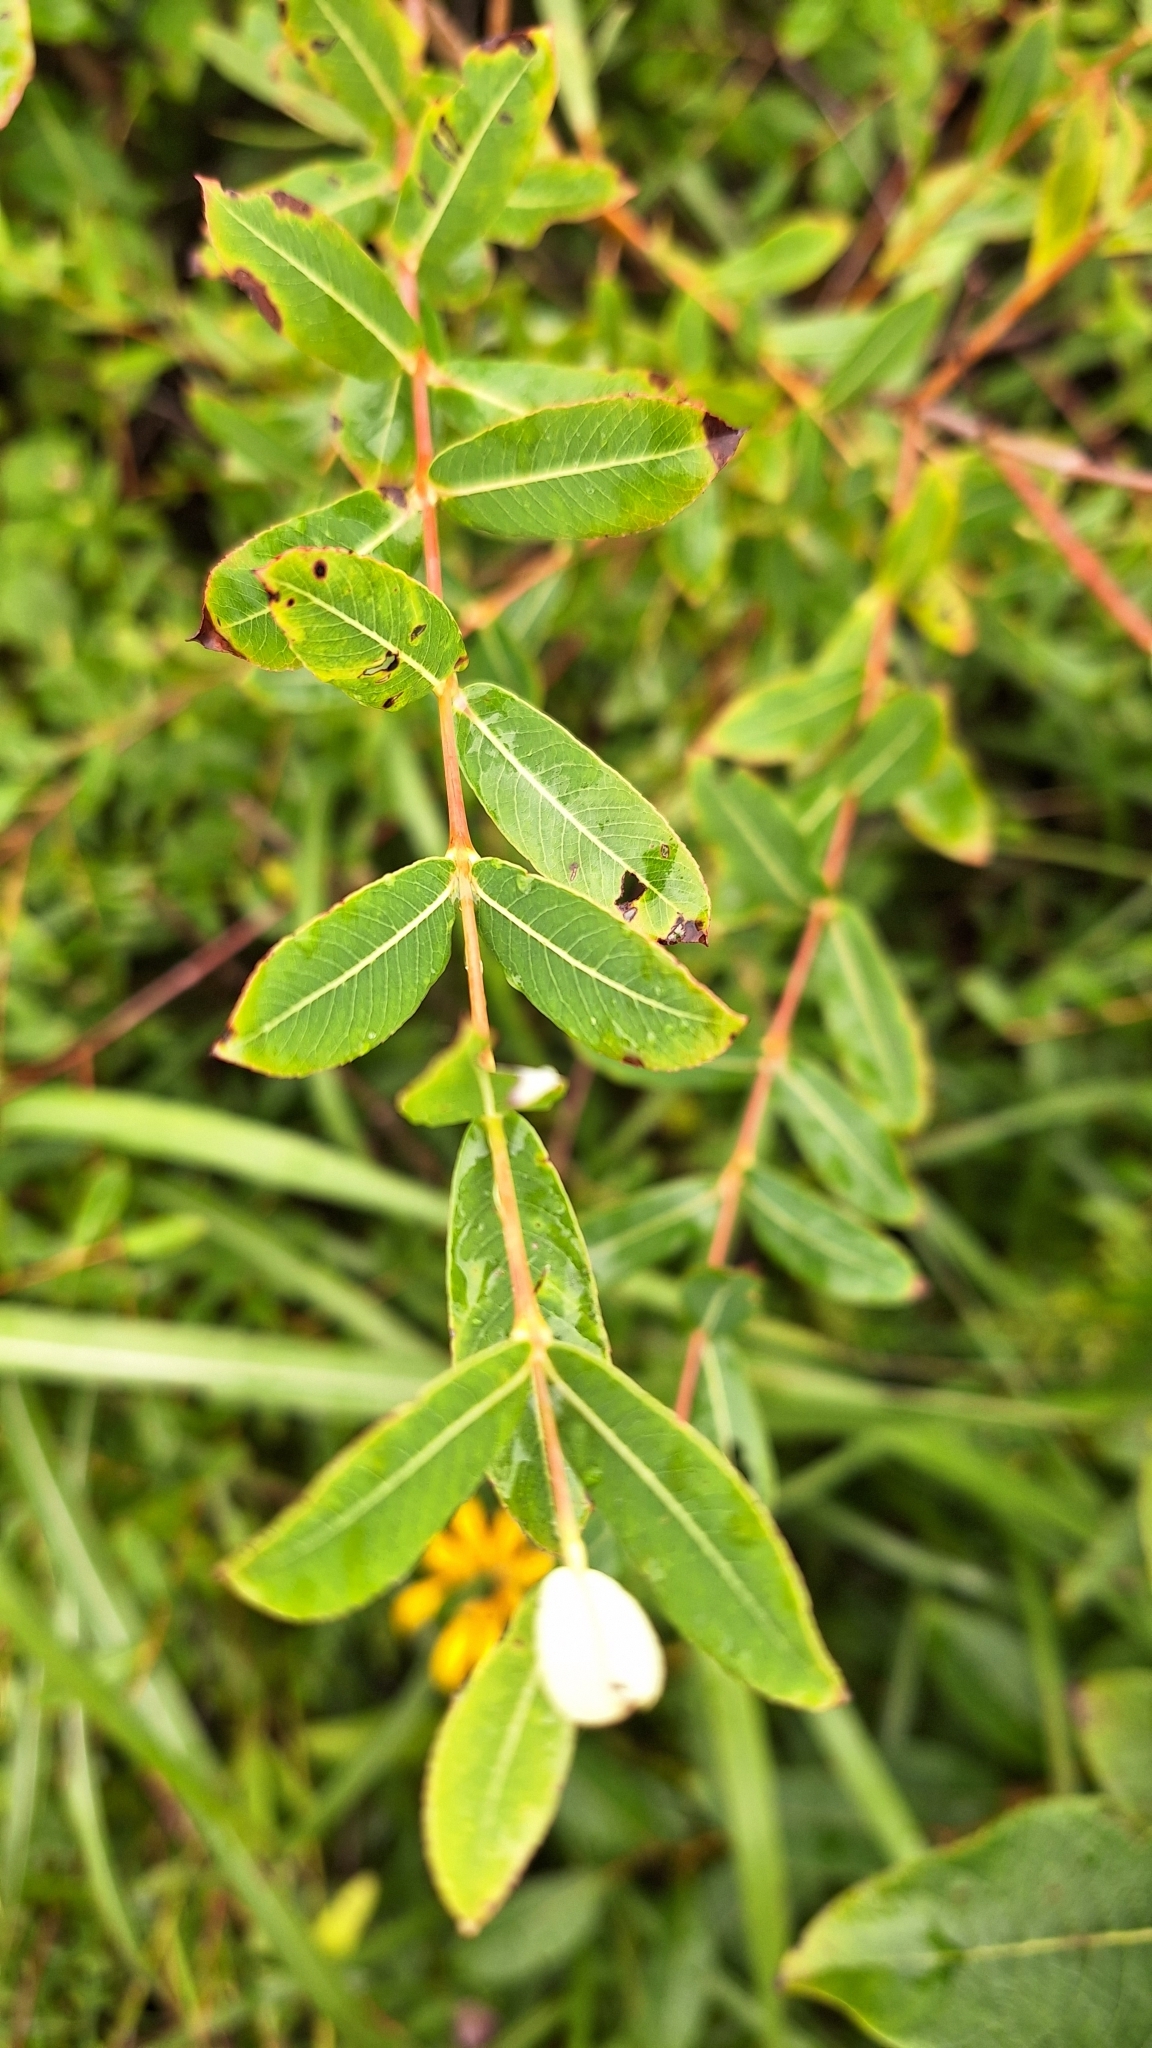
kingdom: Plantae
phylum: Tracheophyta
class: Magnoliopsida
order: Malpighiales
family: Salicaceae
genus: Salix
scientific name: Salix integra
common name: Dappled willow
